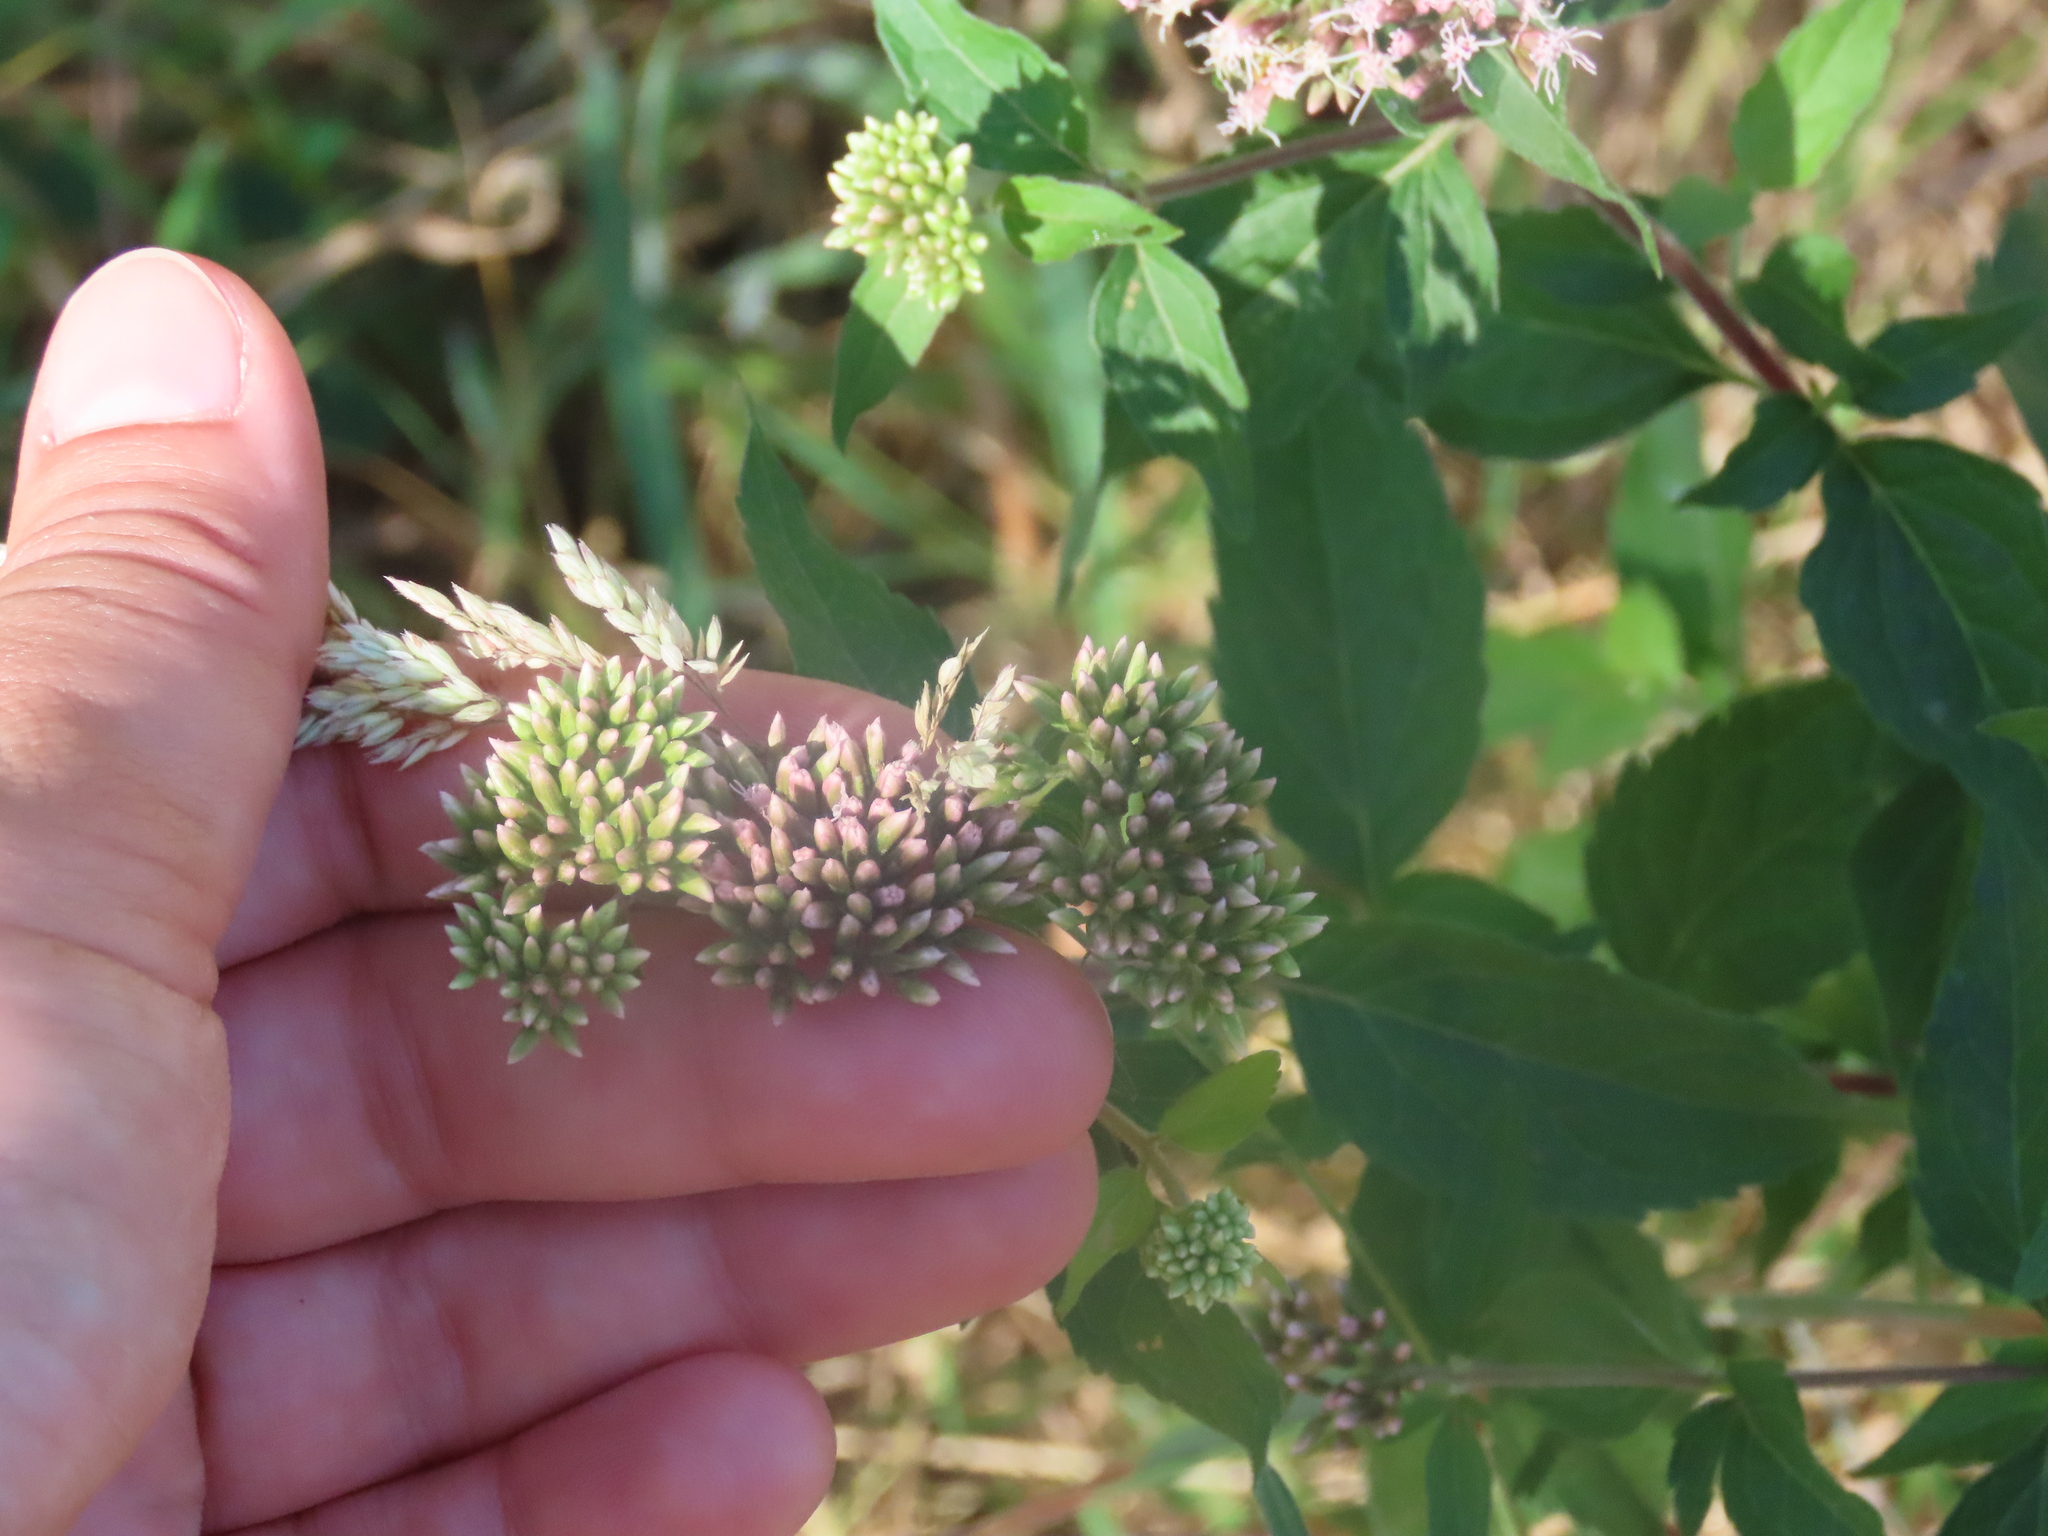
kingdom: Plantae
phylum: Tracheophyta
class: Magnoliopsida
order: Asterales
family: Asteraceae
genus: Eupatorium
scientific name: Eupatorium cannabinum
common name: Hemp-agrimony
